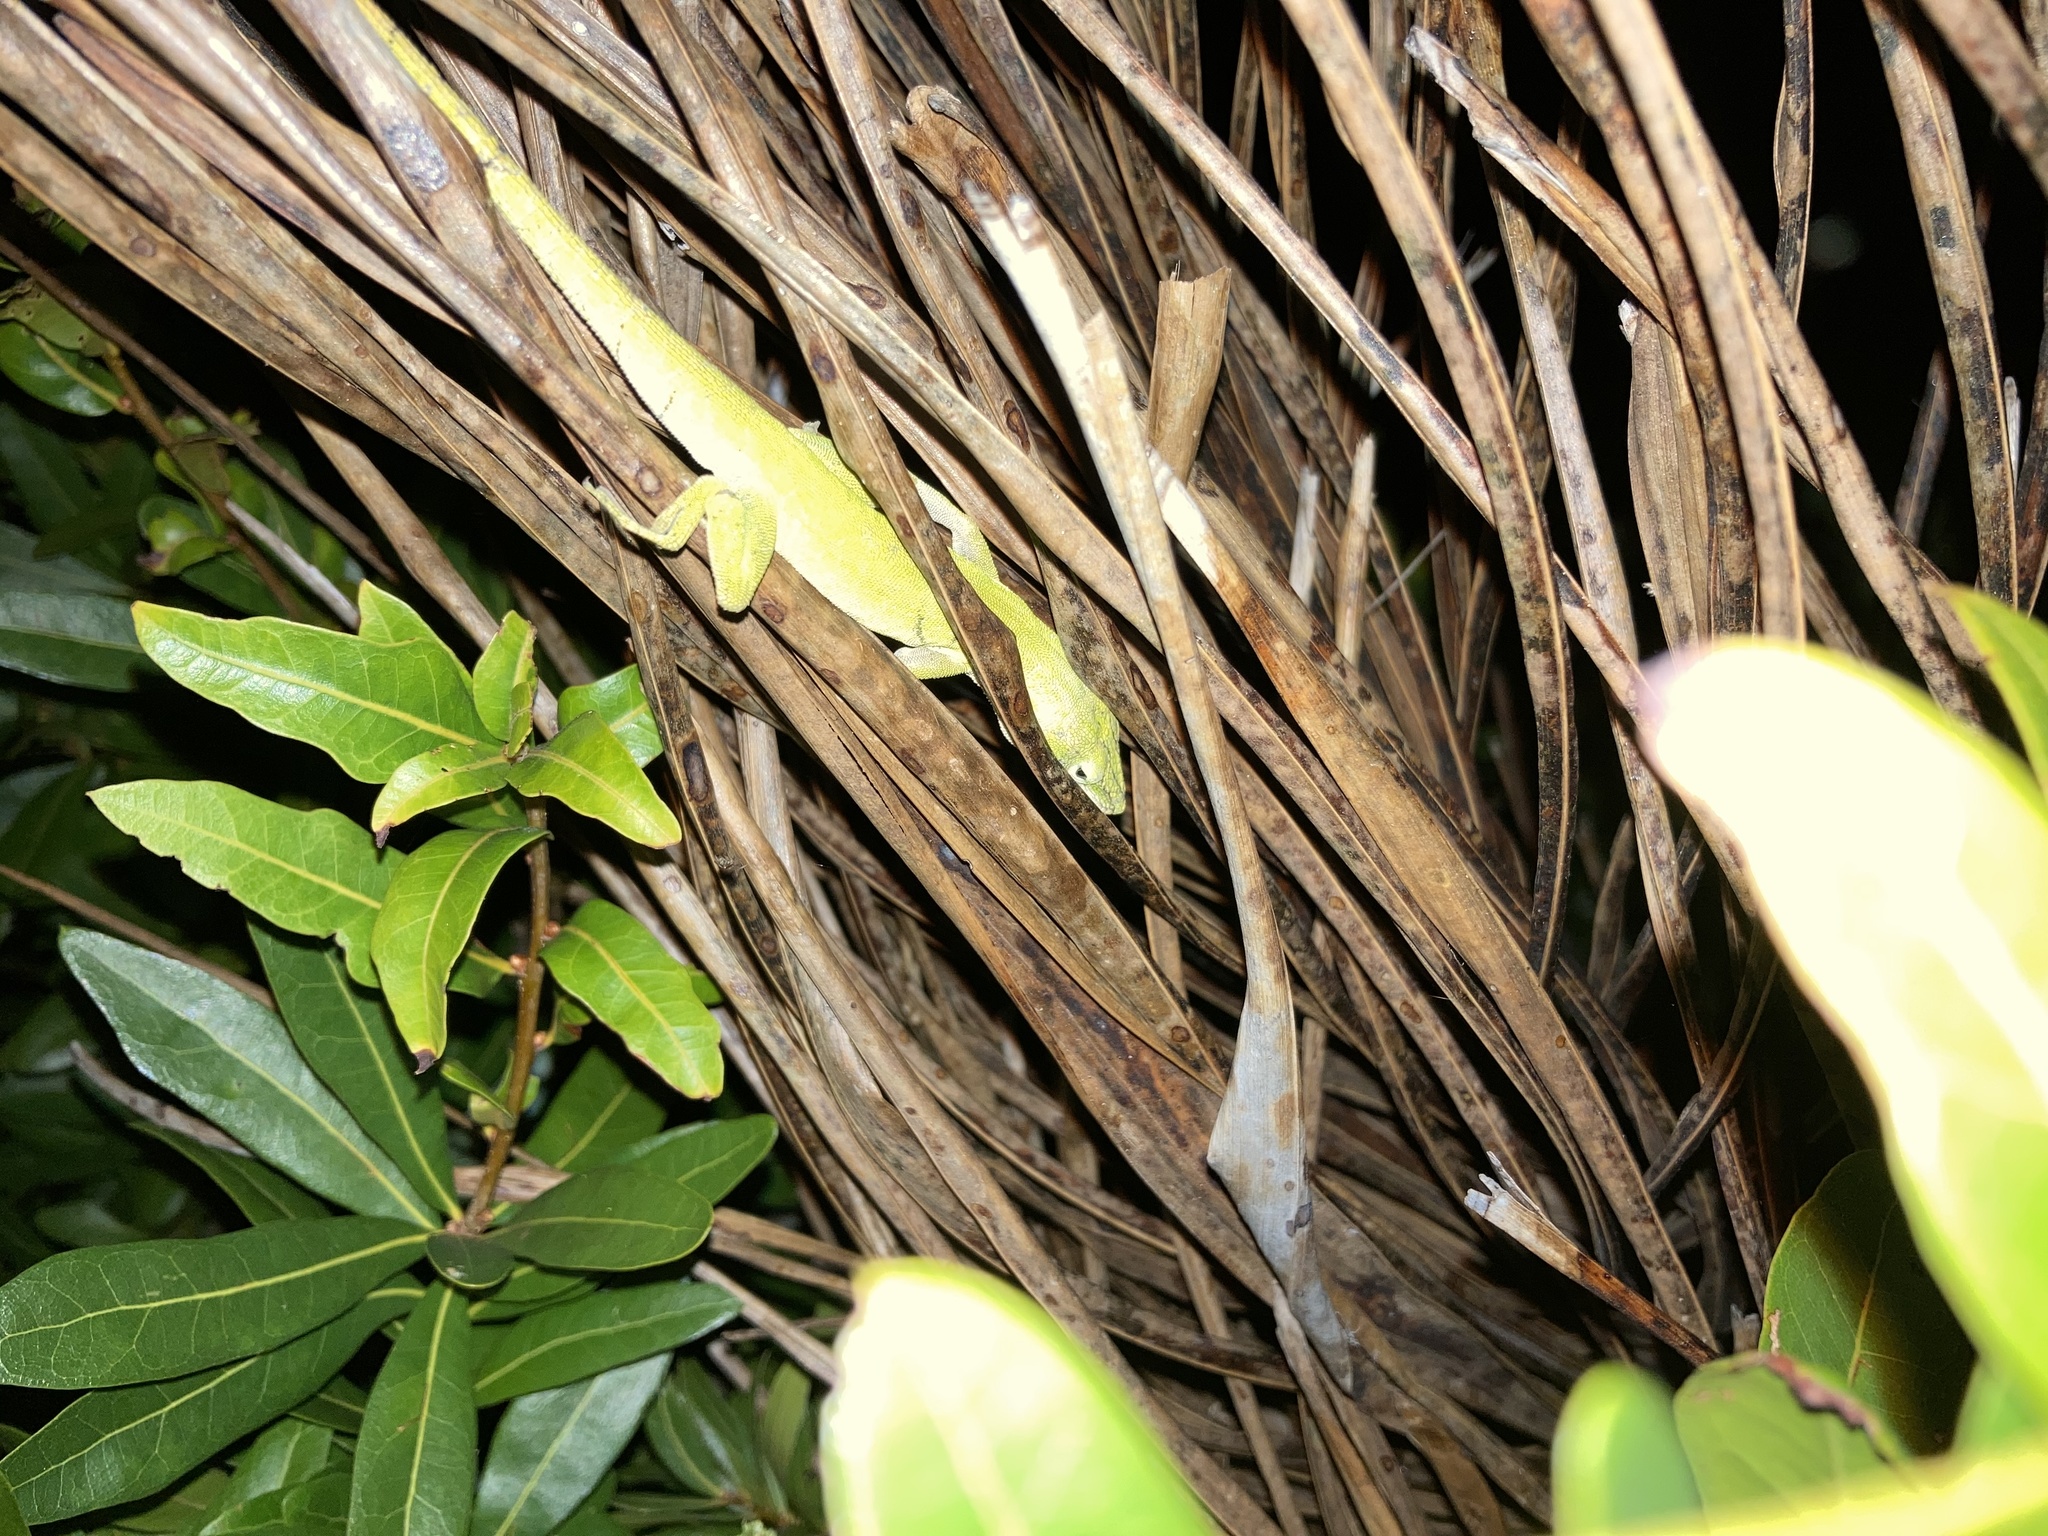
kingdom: Animalia
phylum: Chordata
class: Squamata
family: Dactyloidae
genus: Anolis
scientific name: Anolis carolinensis
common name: Green anole
